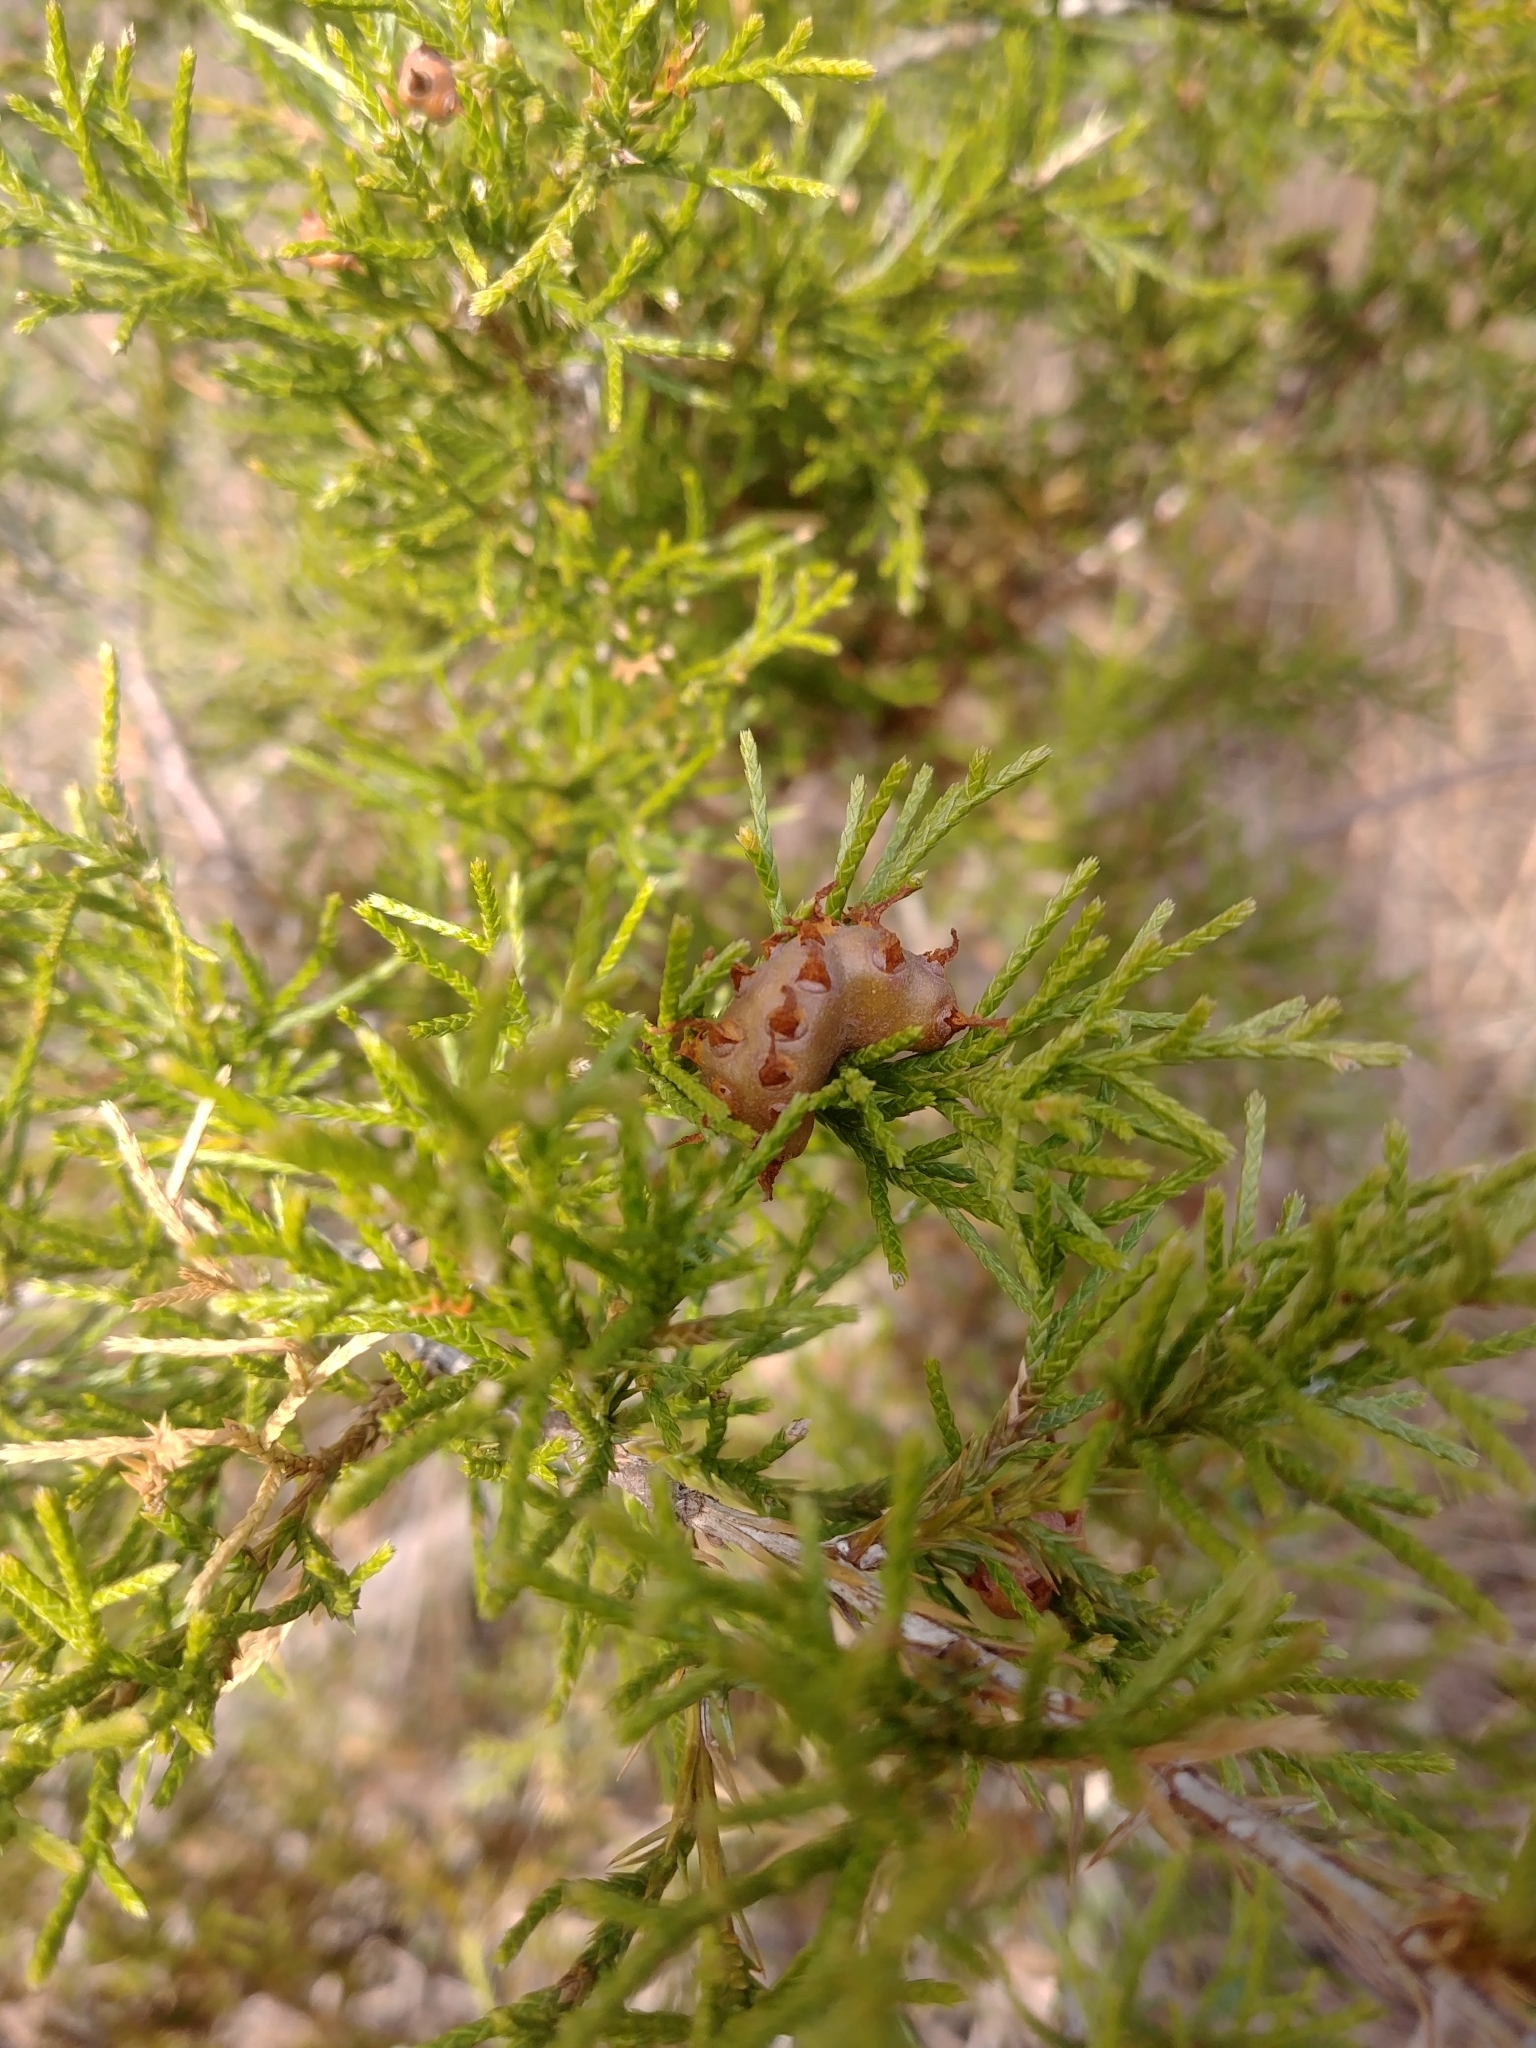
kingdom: Plantae
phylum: Tracheophyta
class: Pinopsida
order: Pinales
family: Cupressaceae
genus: Juniperus
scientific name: Juniperus virginiana
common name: Red juniper
